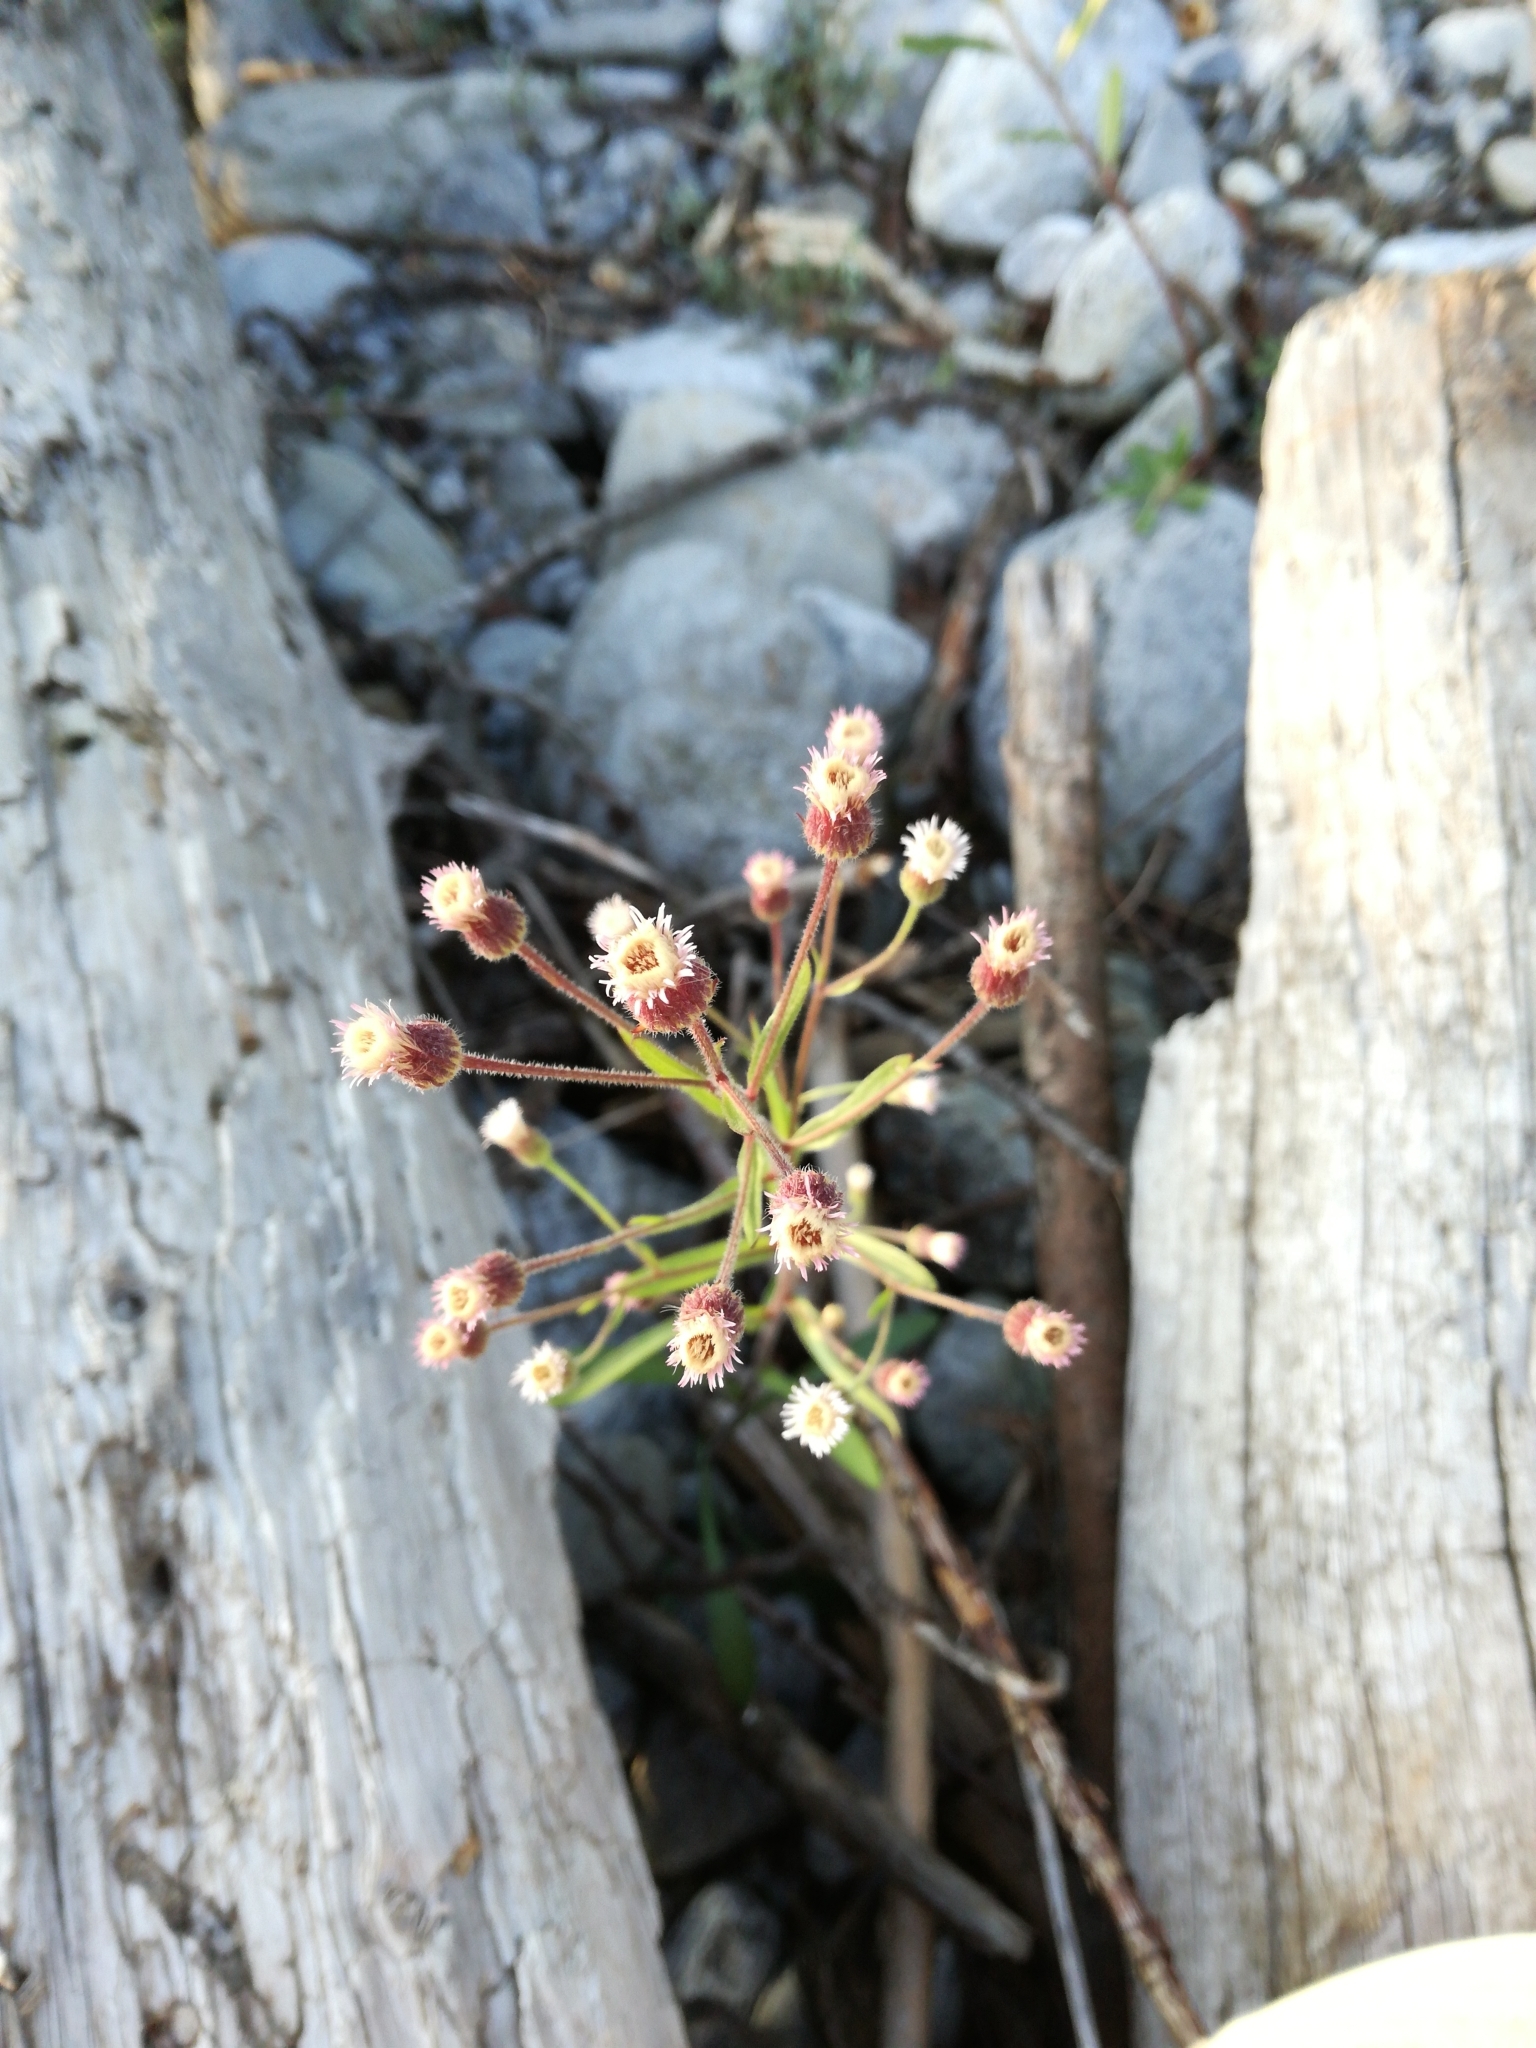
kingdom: Plantae
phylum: Tracheophyta
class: Magnoliopsida
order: Asterales
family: Asteraceae
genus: Erigeron
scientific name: Erigeron acris
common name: Blue fleabane
